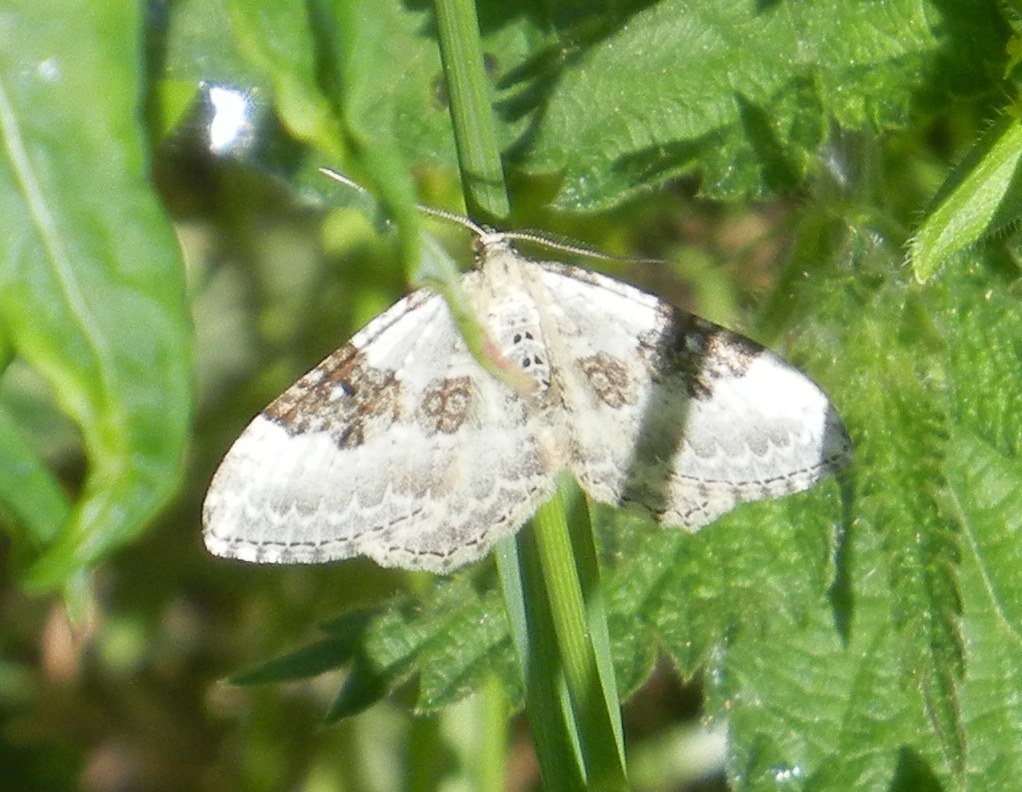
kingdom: Animalia
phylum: Arthropoda
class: Insecta
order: Lepidoptera
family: Geometridae
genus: Xanthorhoe
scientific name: Xanthorhoe montanata
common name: Silver-ground carpet
